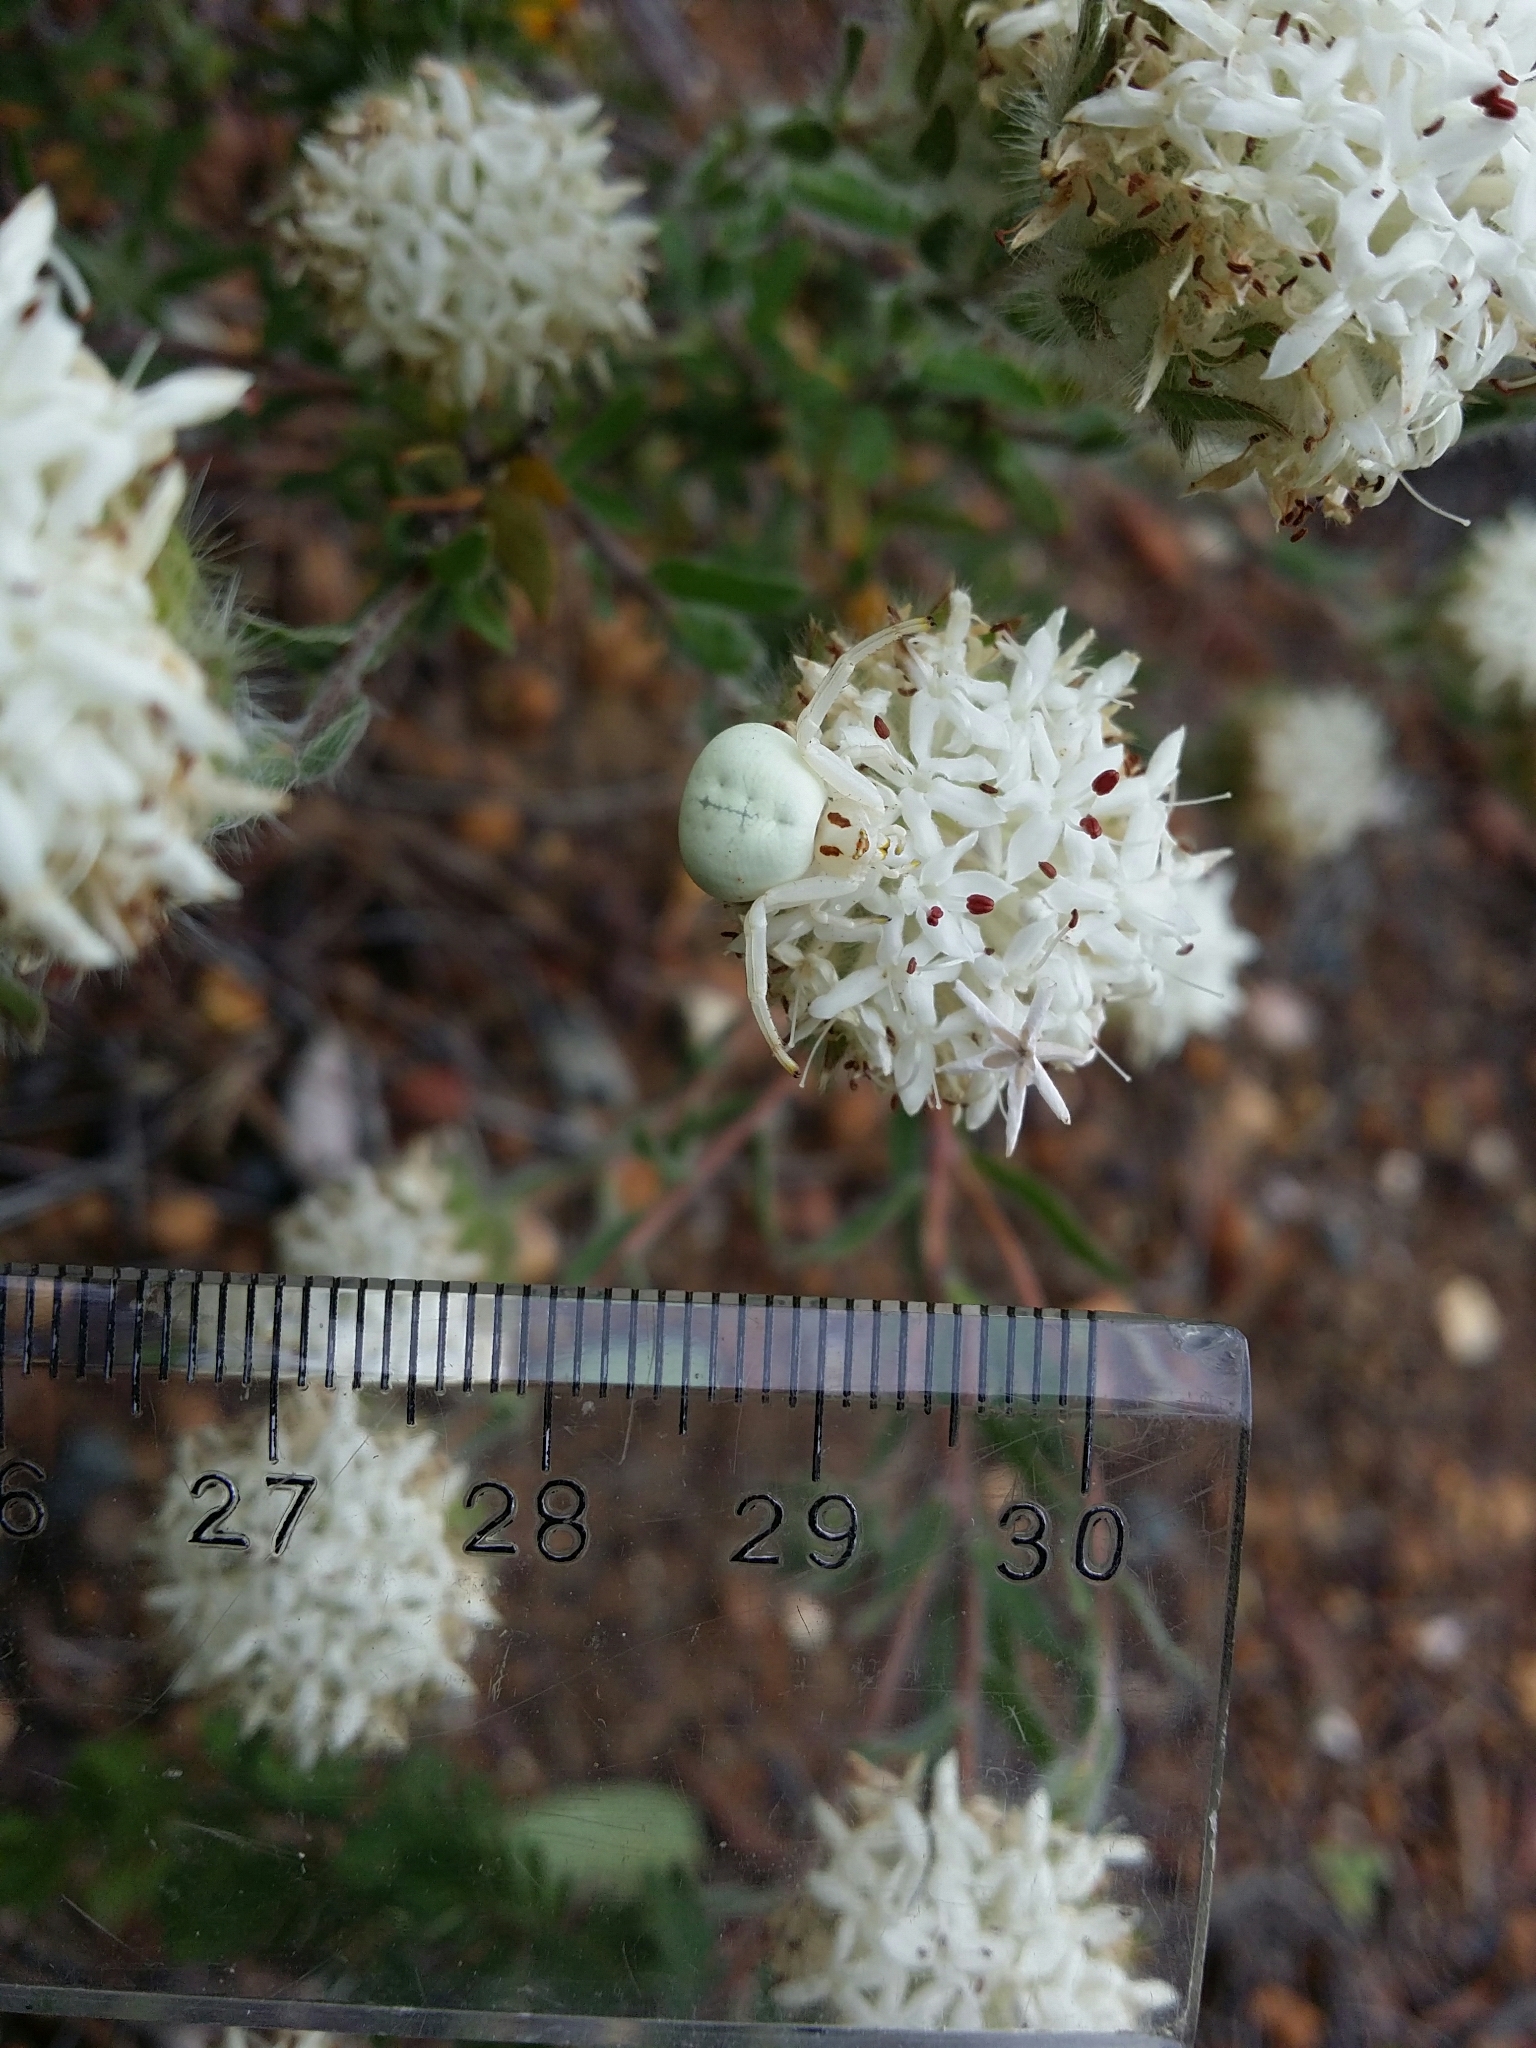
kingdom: Animalia
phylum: Arthropoda
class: Arachnida
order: Araneae
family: Thomisidae
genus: Zygometis
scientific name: Zygometis xanthogaster
